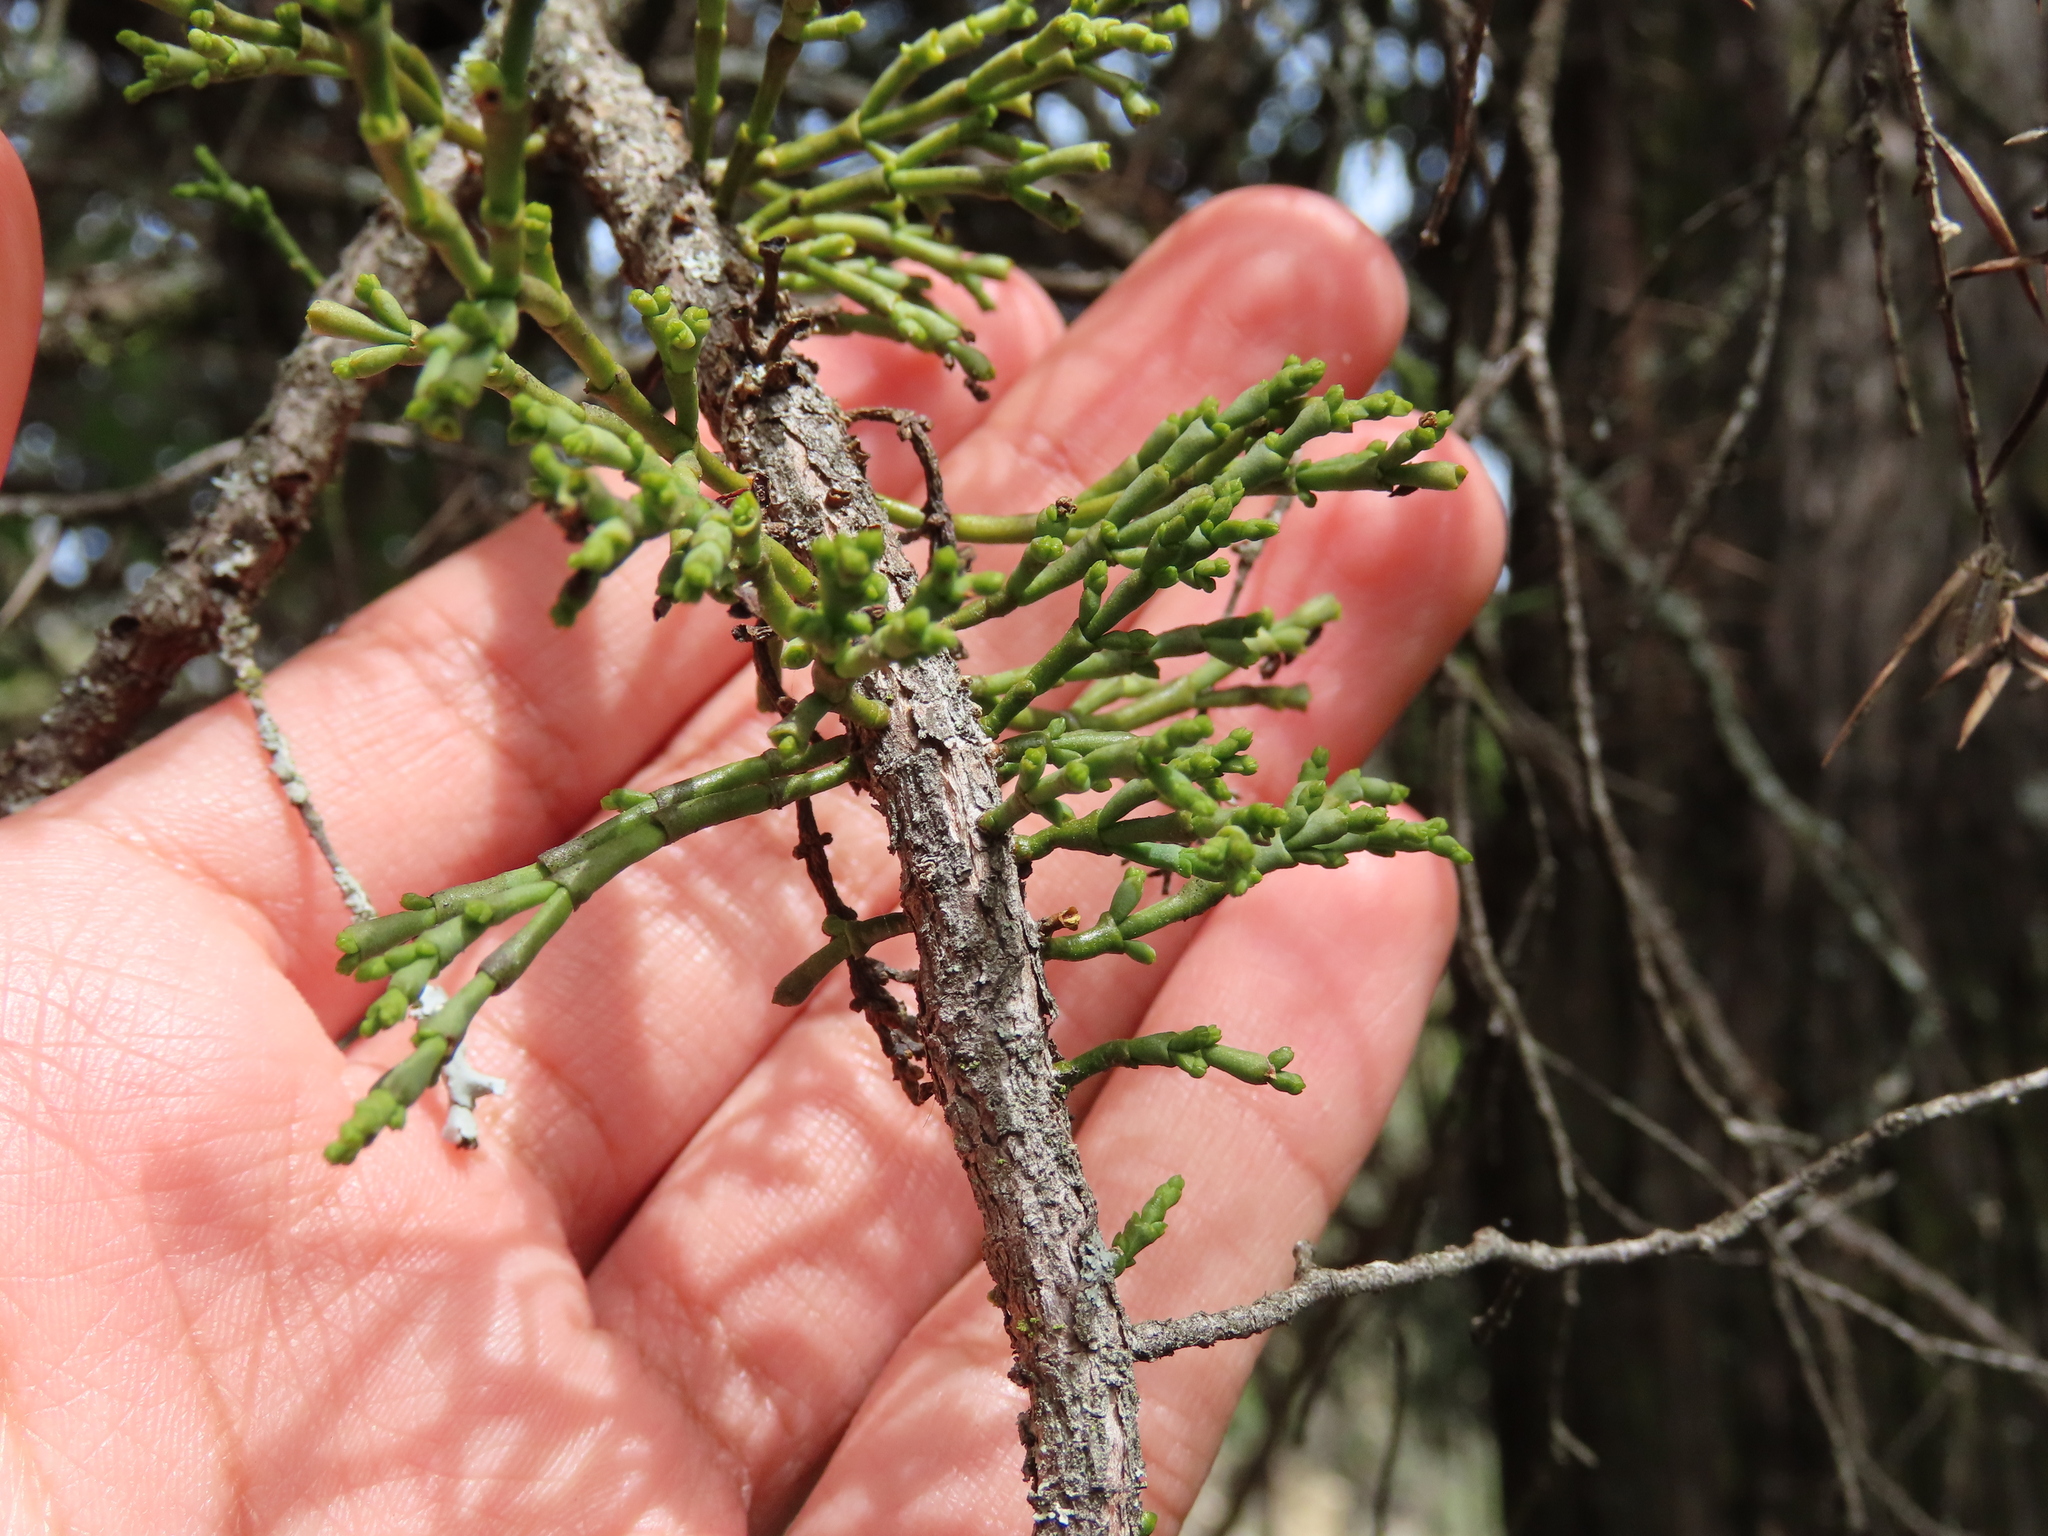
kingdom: Plantae
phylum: Tracheophyta
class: Magnoliopsida
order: Santalales
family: Viscaceae
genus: Arceuthobium
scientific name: Arceuthobium oxycedri
